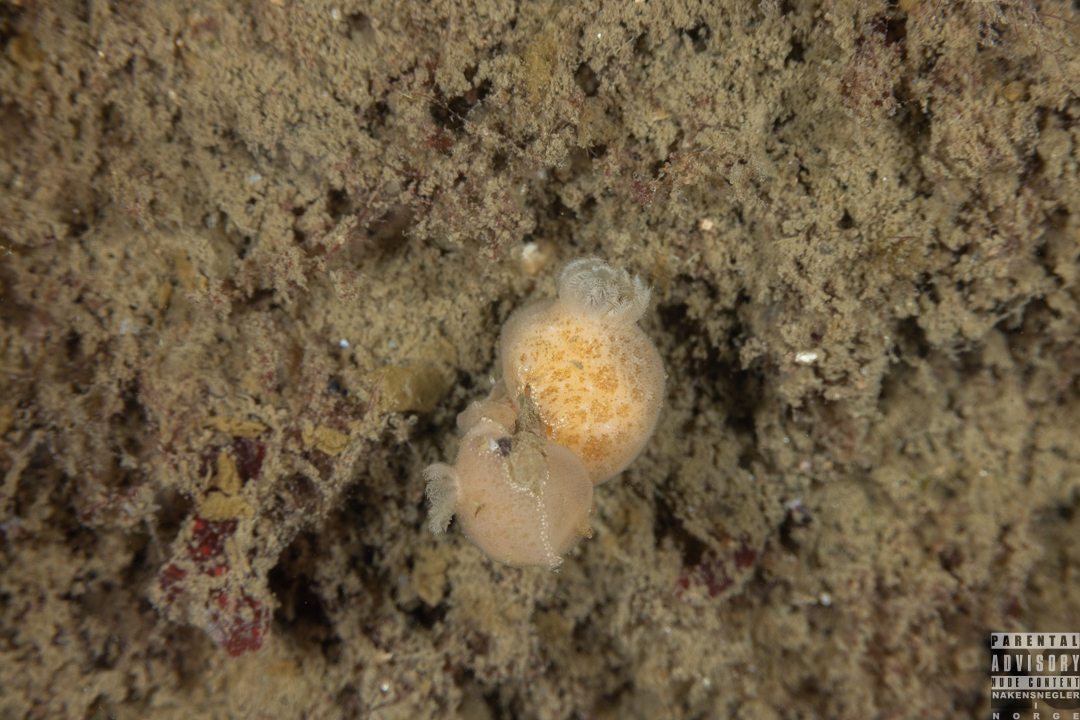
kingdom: Animalia
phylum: Mollusca
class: Gastropoda
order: Nudibranchia
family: Discodorididae
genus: Jorunna
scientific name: Jorunna tomentosa
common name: Grey sea slug
